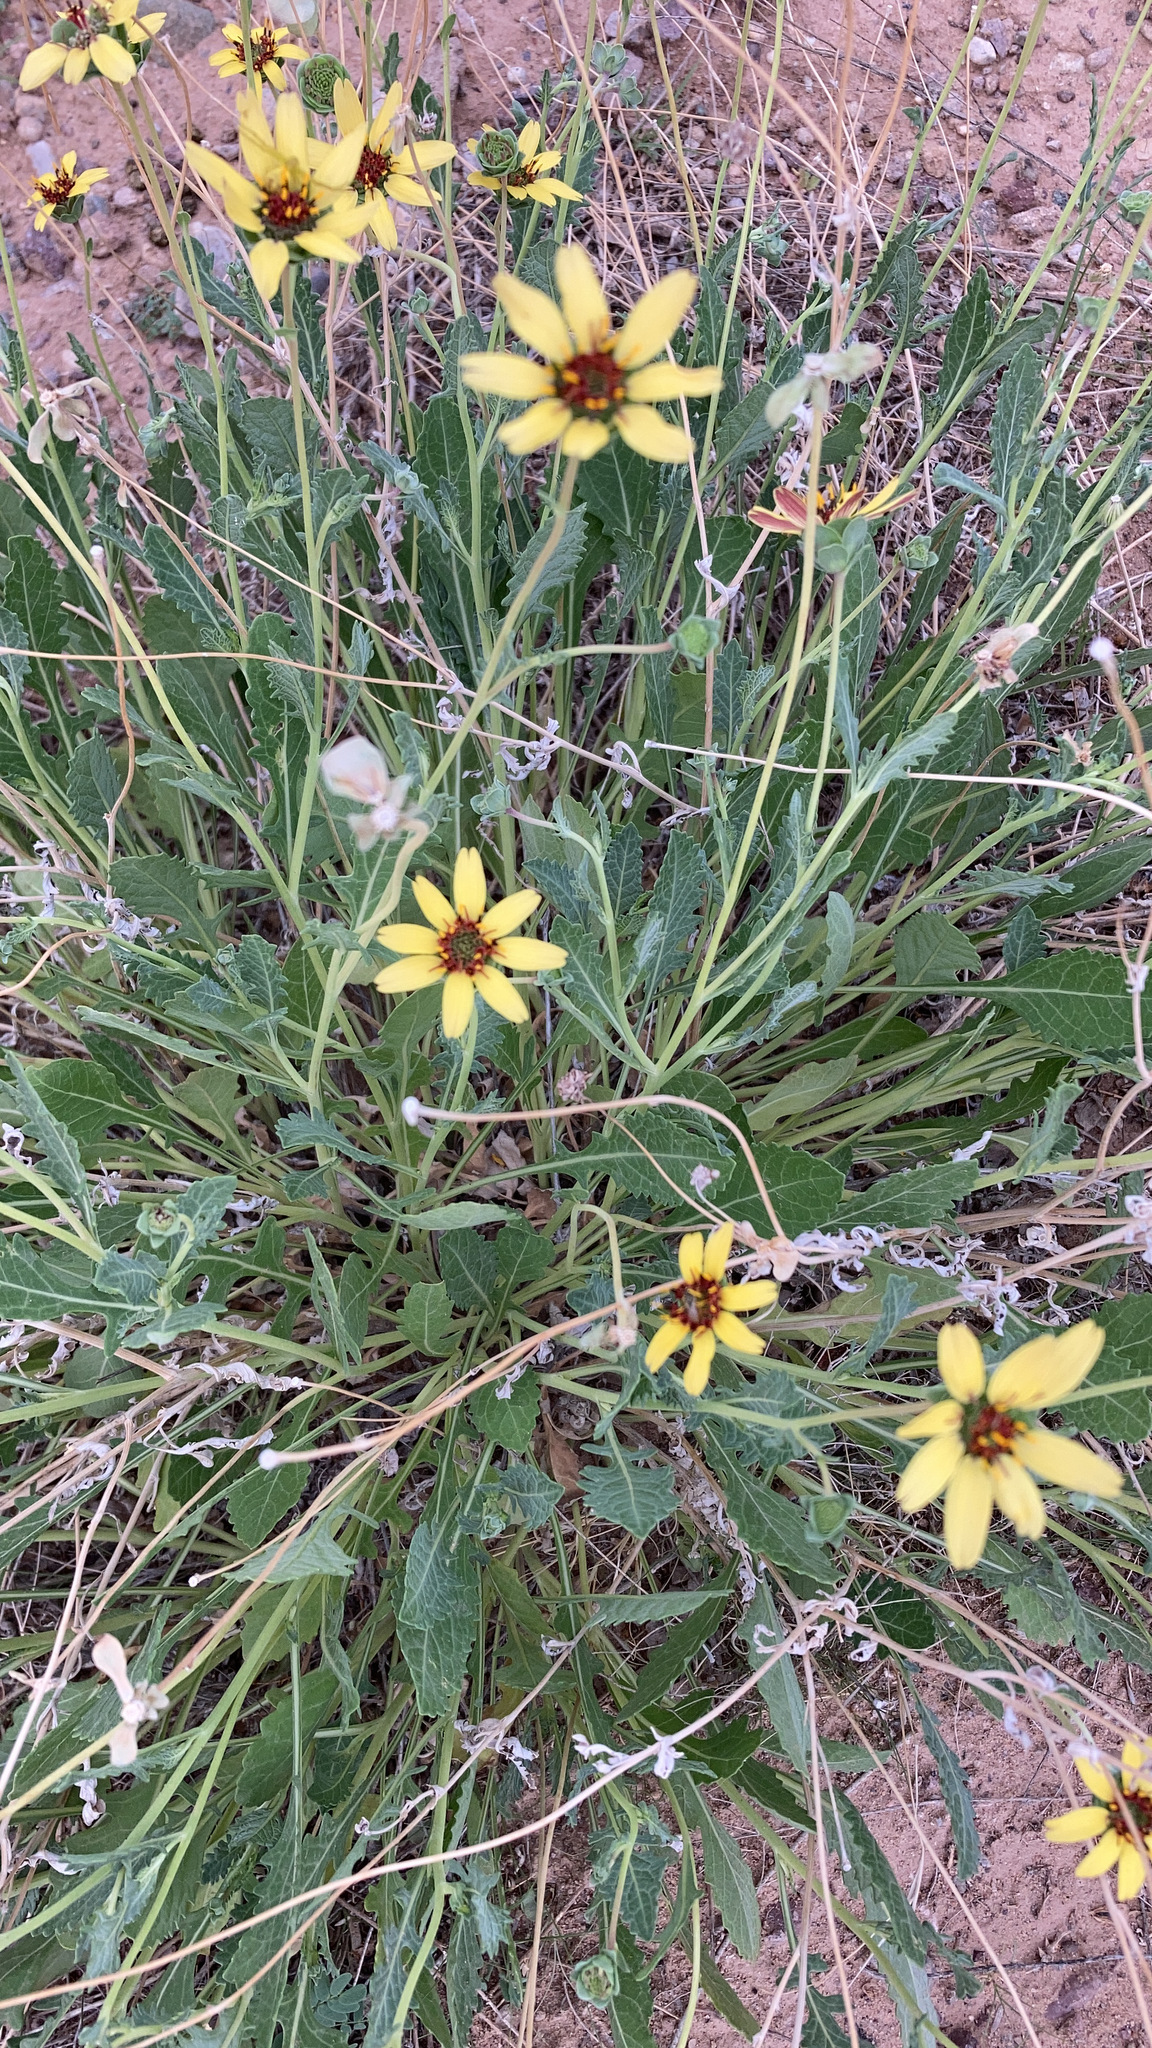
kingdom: Plantae
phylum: Tracheophyta
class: Magnoliopsida
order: Asterales
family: Asteraceae
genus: Berlandiera
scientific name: Berlandiera lyrata
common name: Chocolate-flower
